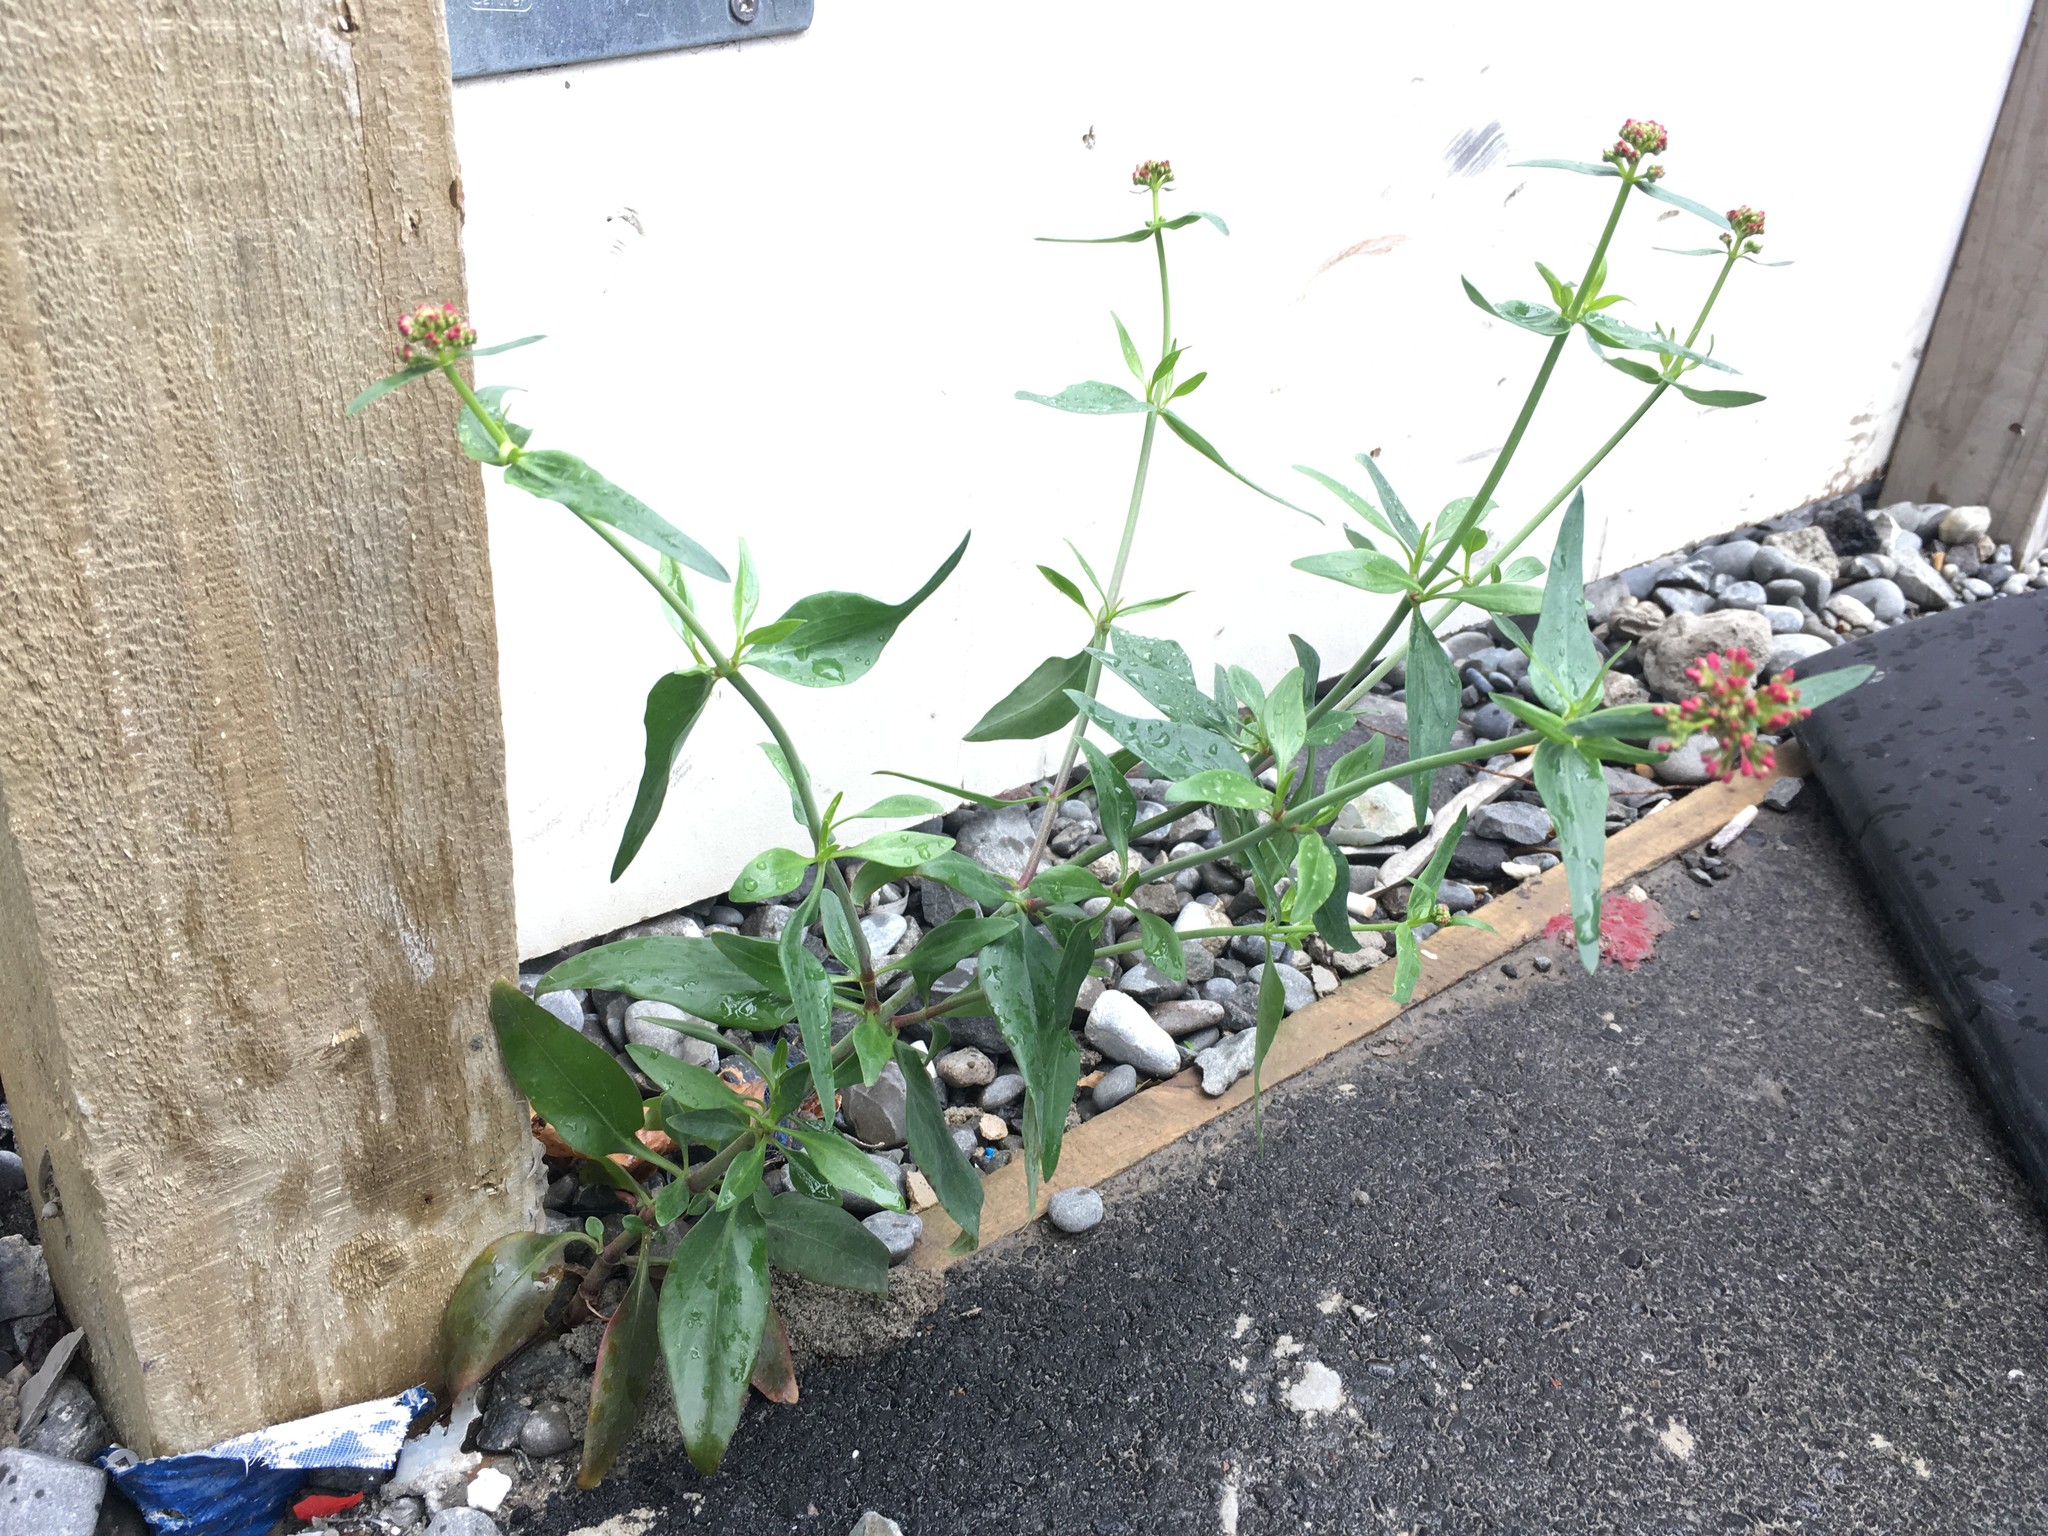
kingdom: Plantae
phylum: Tracheophyta
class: Magnoliopsida
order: Dipsacales
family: Caprifoliaceae
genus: Centranthus
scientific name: Centranthus ruber
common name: Red valerian
